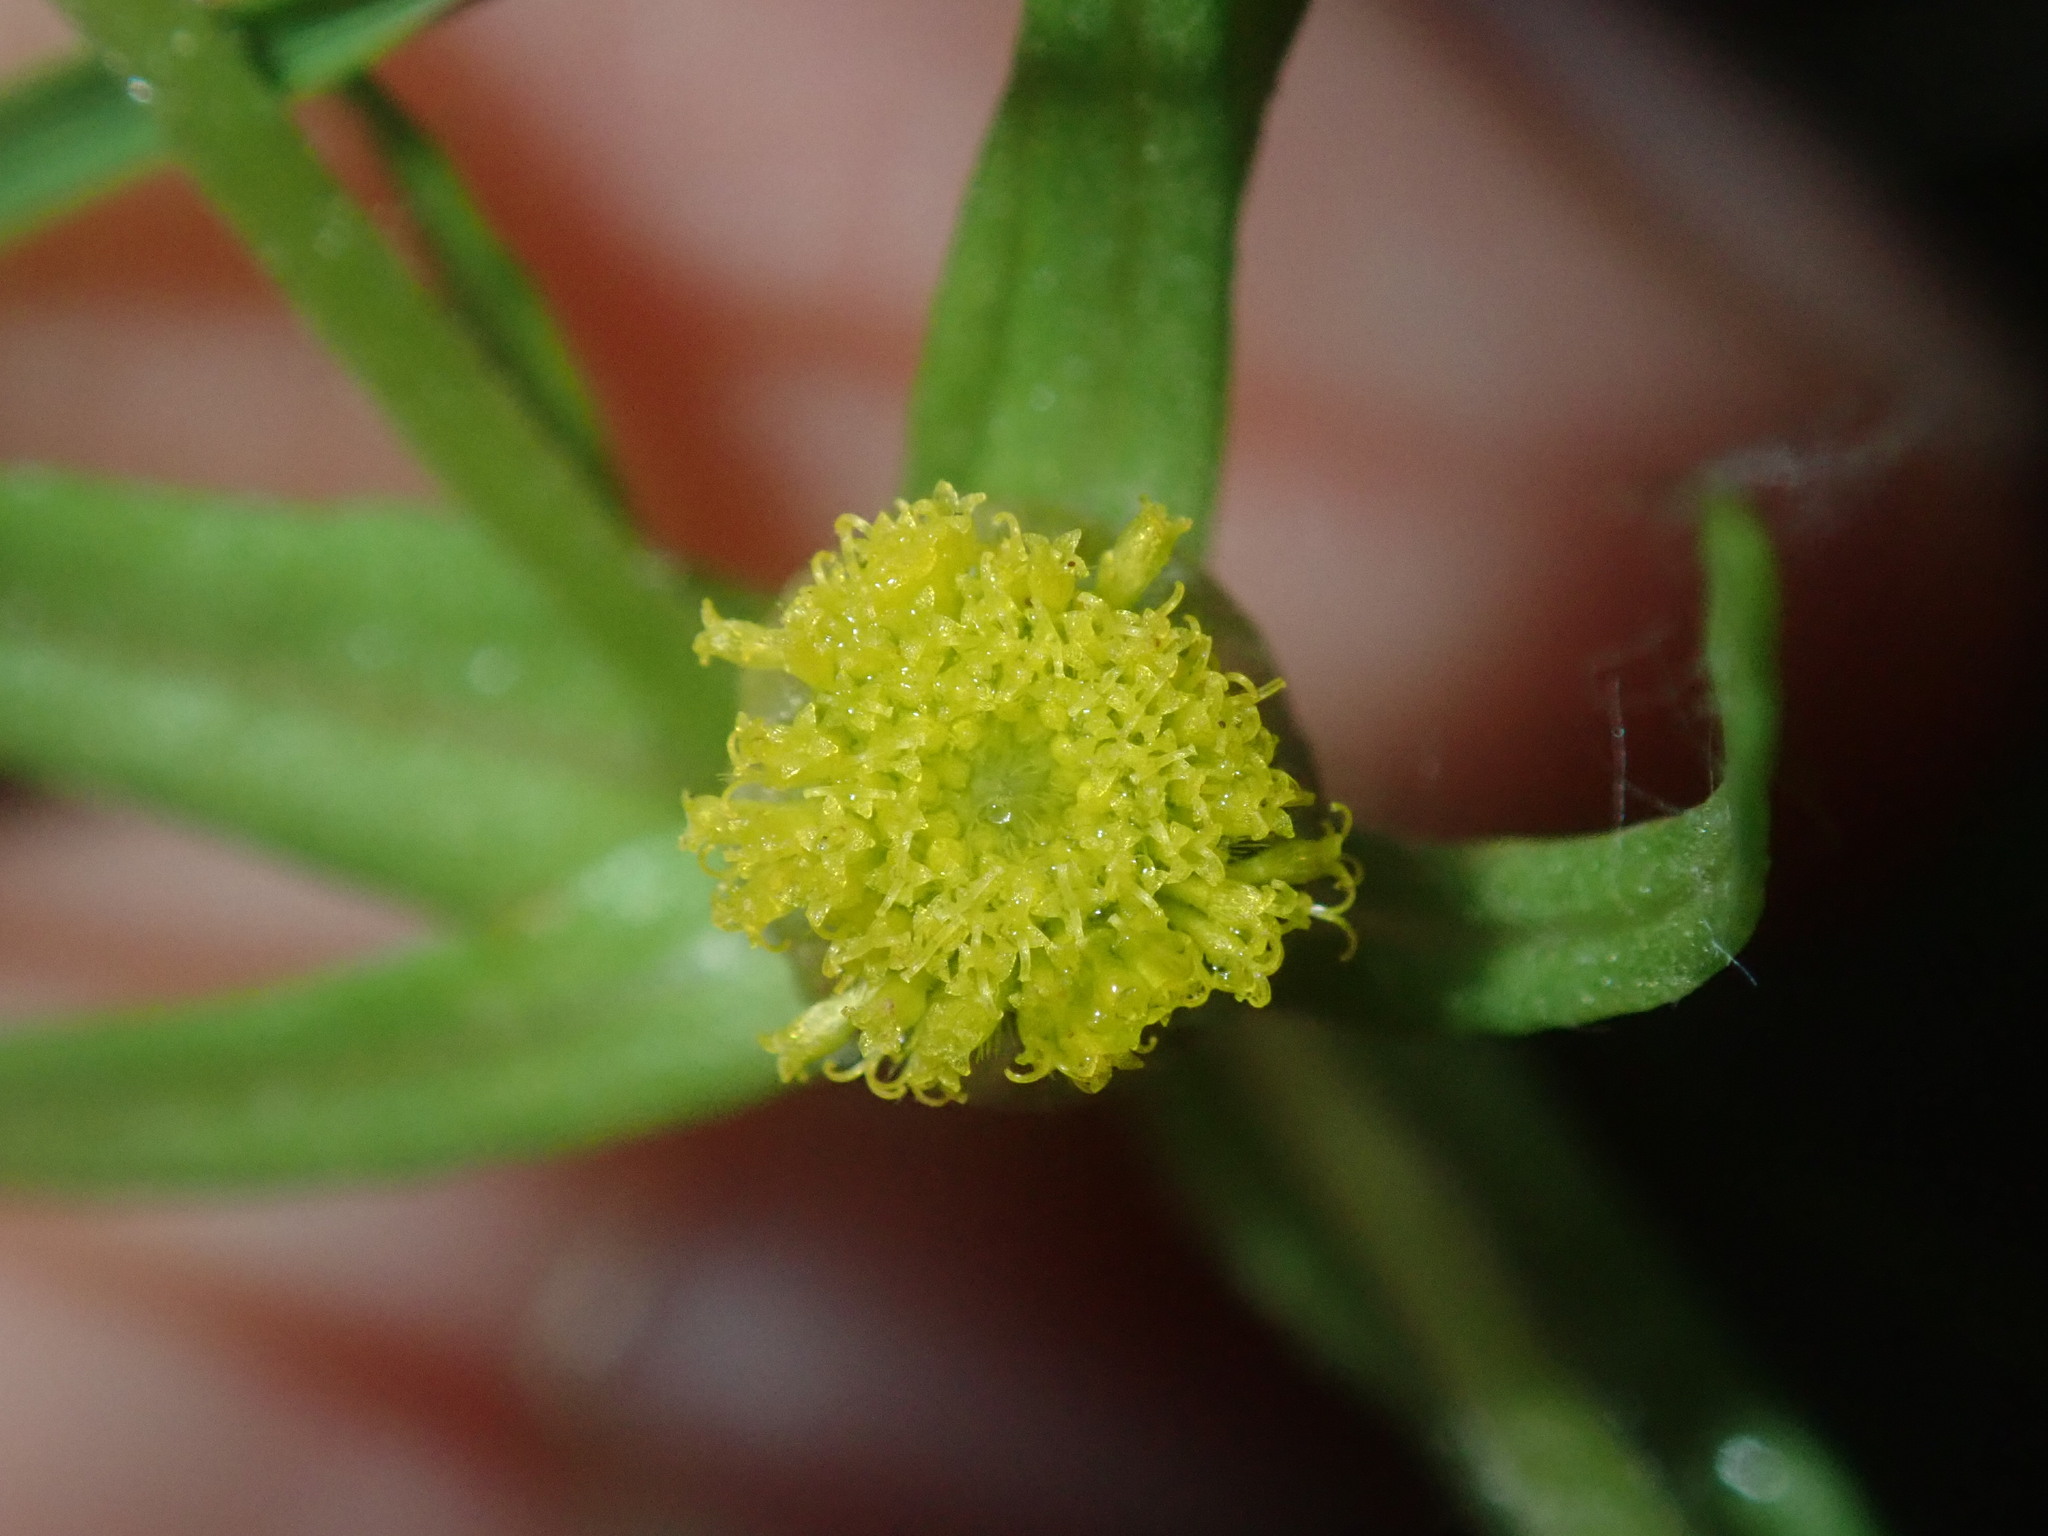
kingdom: Plantae
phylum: Tracheophyta
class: Magnoliopsida
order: Asterales
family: Asteraceae
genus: Triptilodiscus
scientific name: Triptilodiscus pygmaeus
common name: Common sunray
